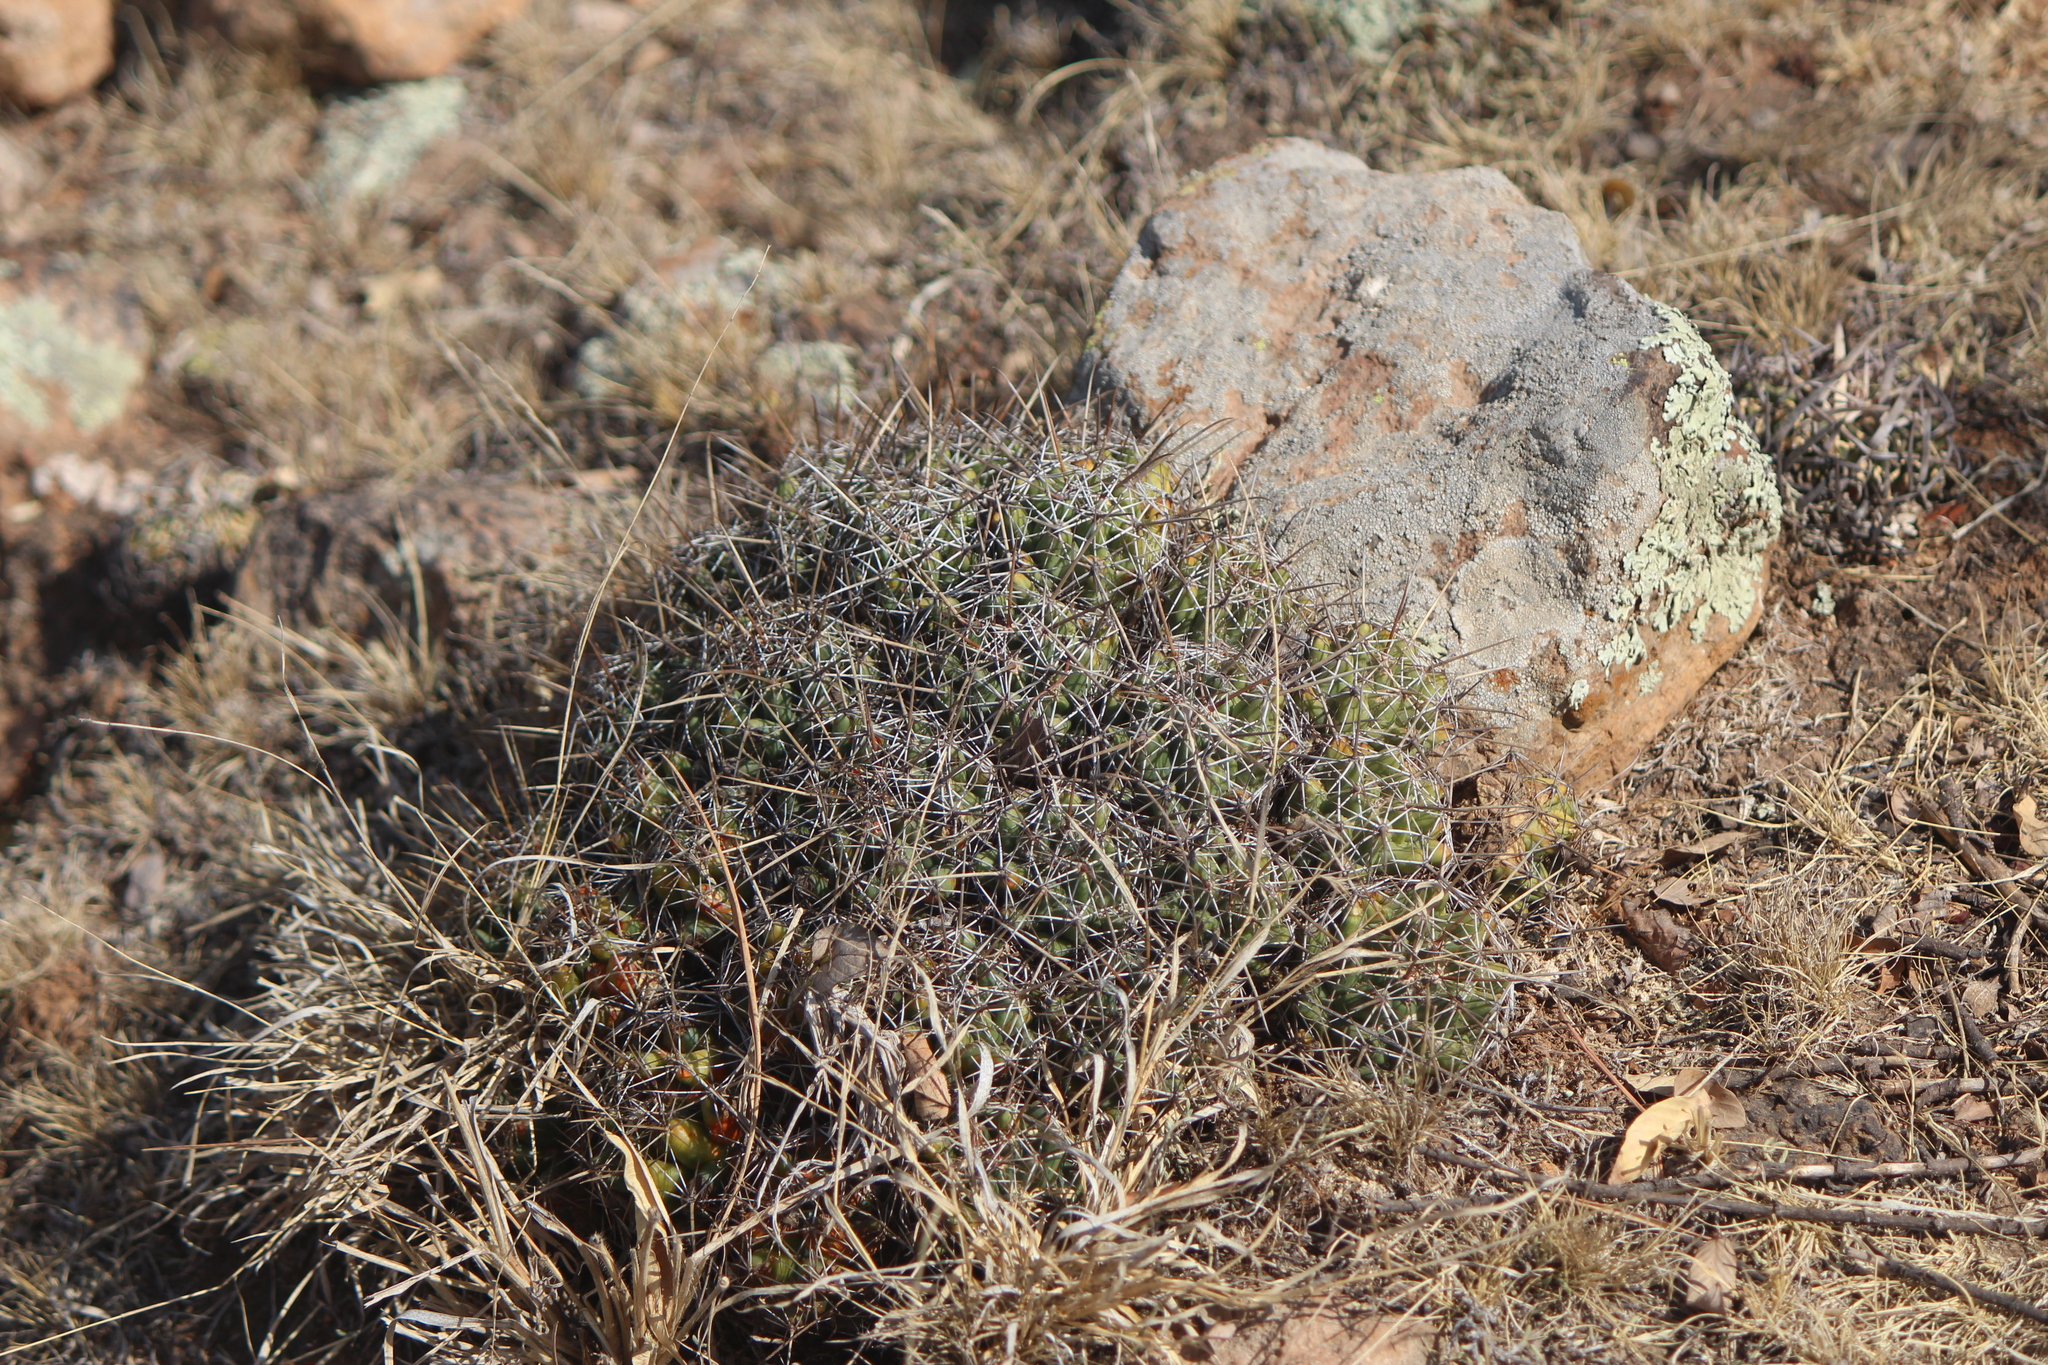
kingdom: Plantae
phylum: Tracheophyta
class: Magnoliopsida
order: Caryophyllales
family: Cactaceae
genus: Coryphantha
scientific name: Coryphantha octacantha
